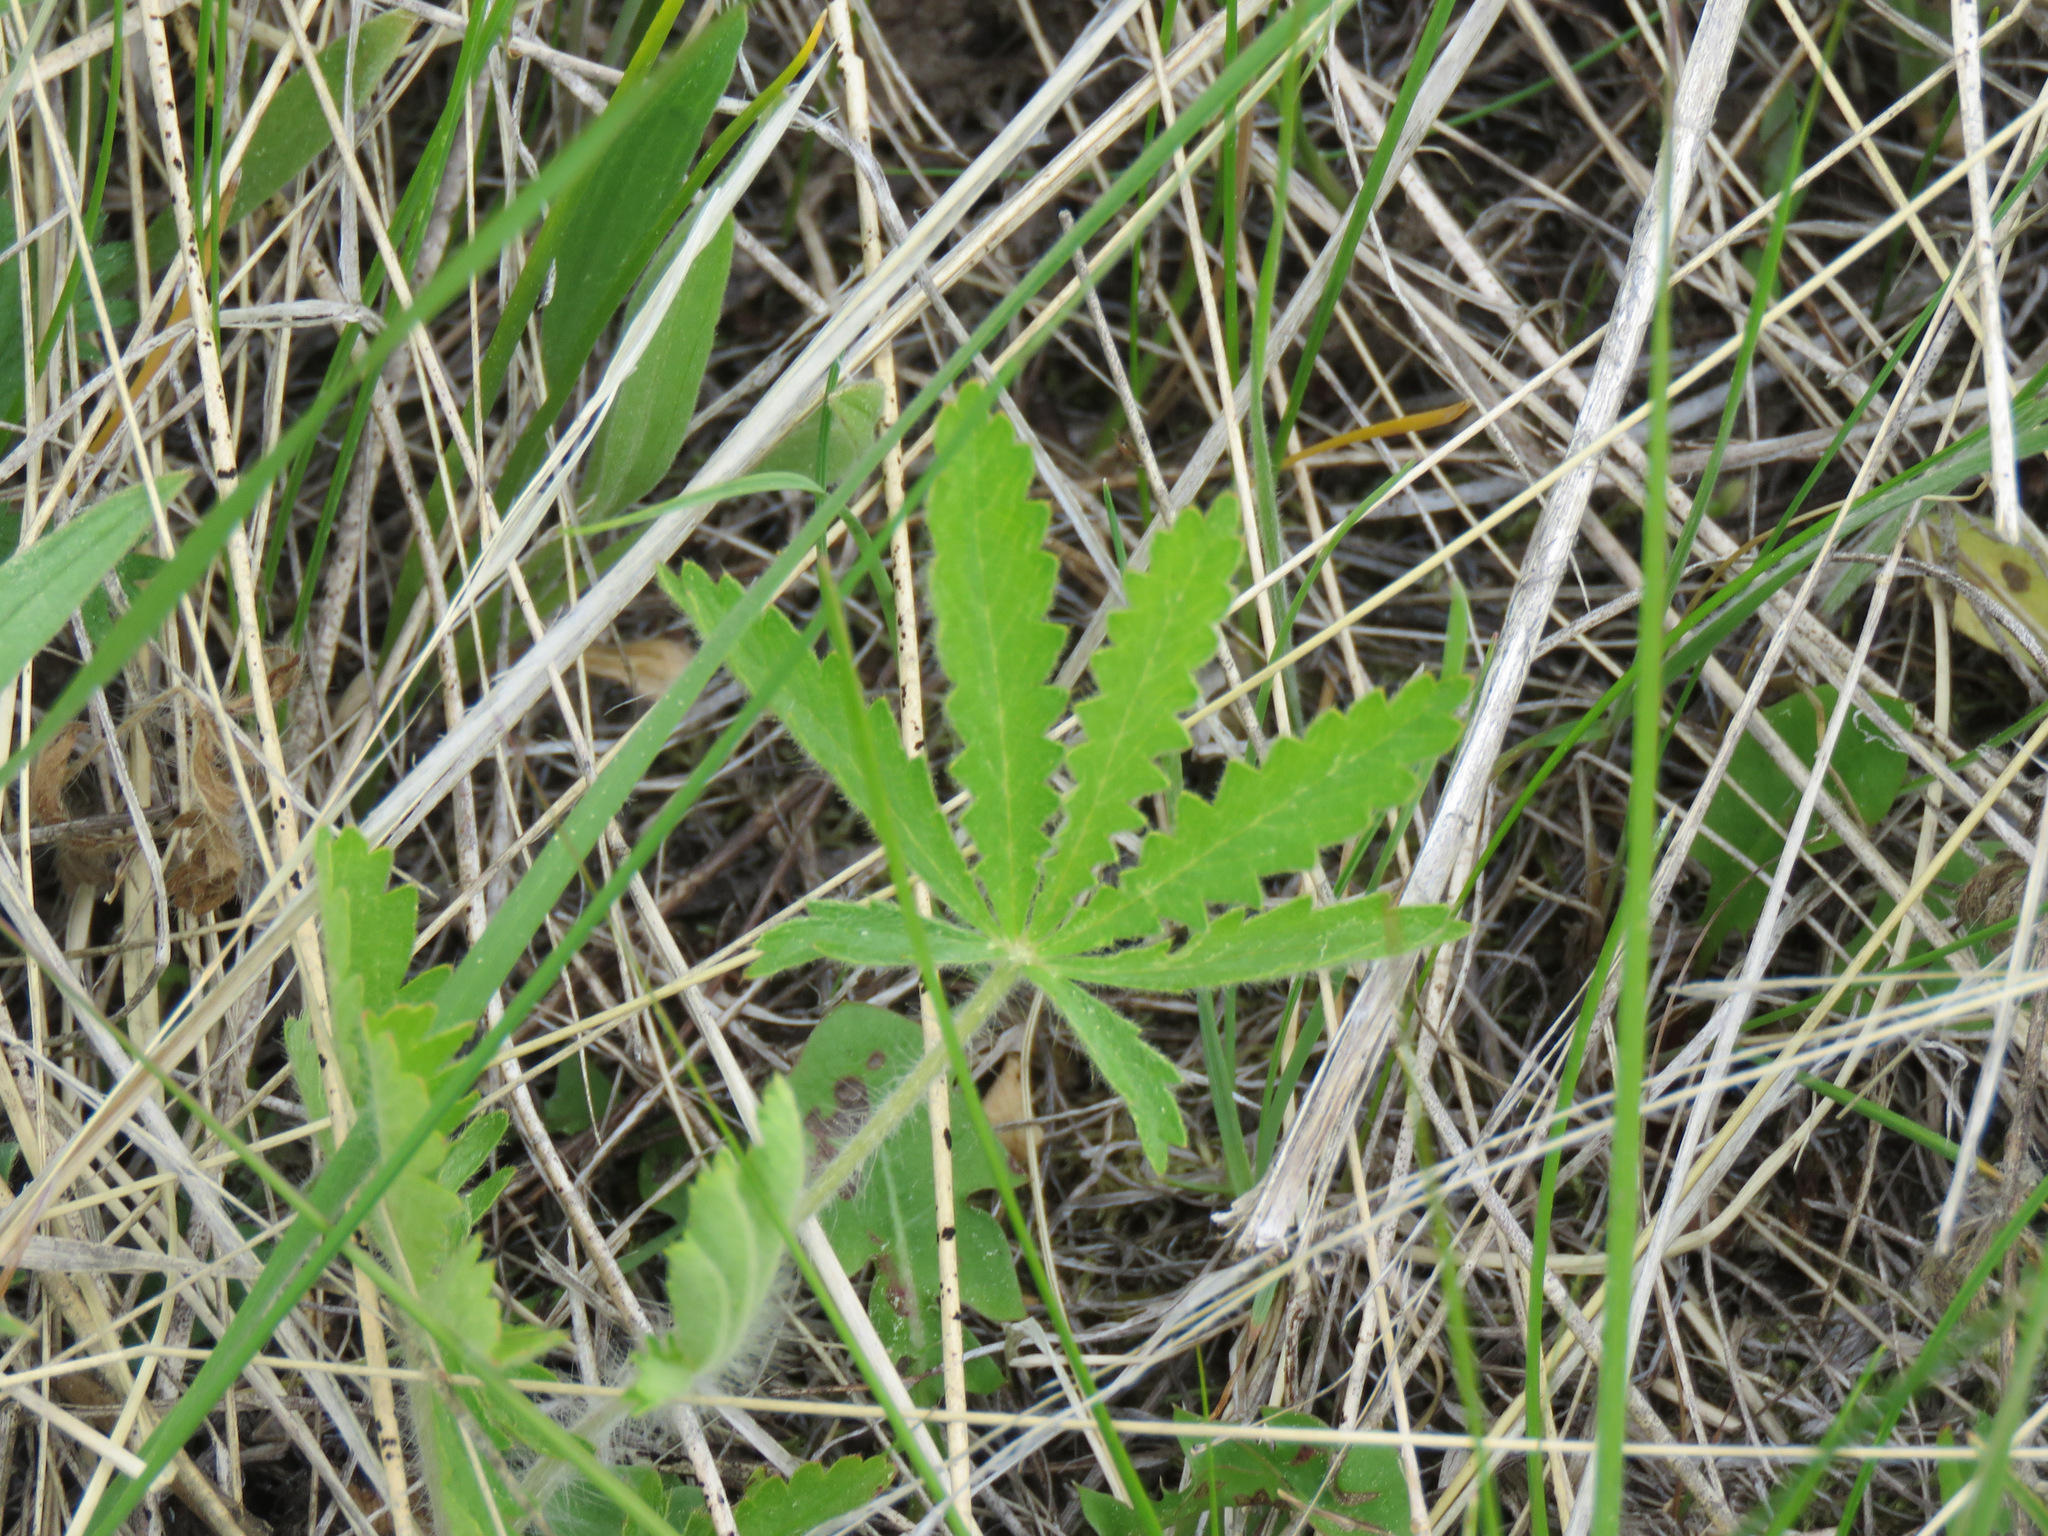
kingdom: Plantae
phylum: Tracheophyta
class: Magnoliopsida
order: Rosales
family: Rosaceae
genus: Potentilla
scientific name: Potentilla recta
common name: Sulphur cinquefoil
